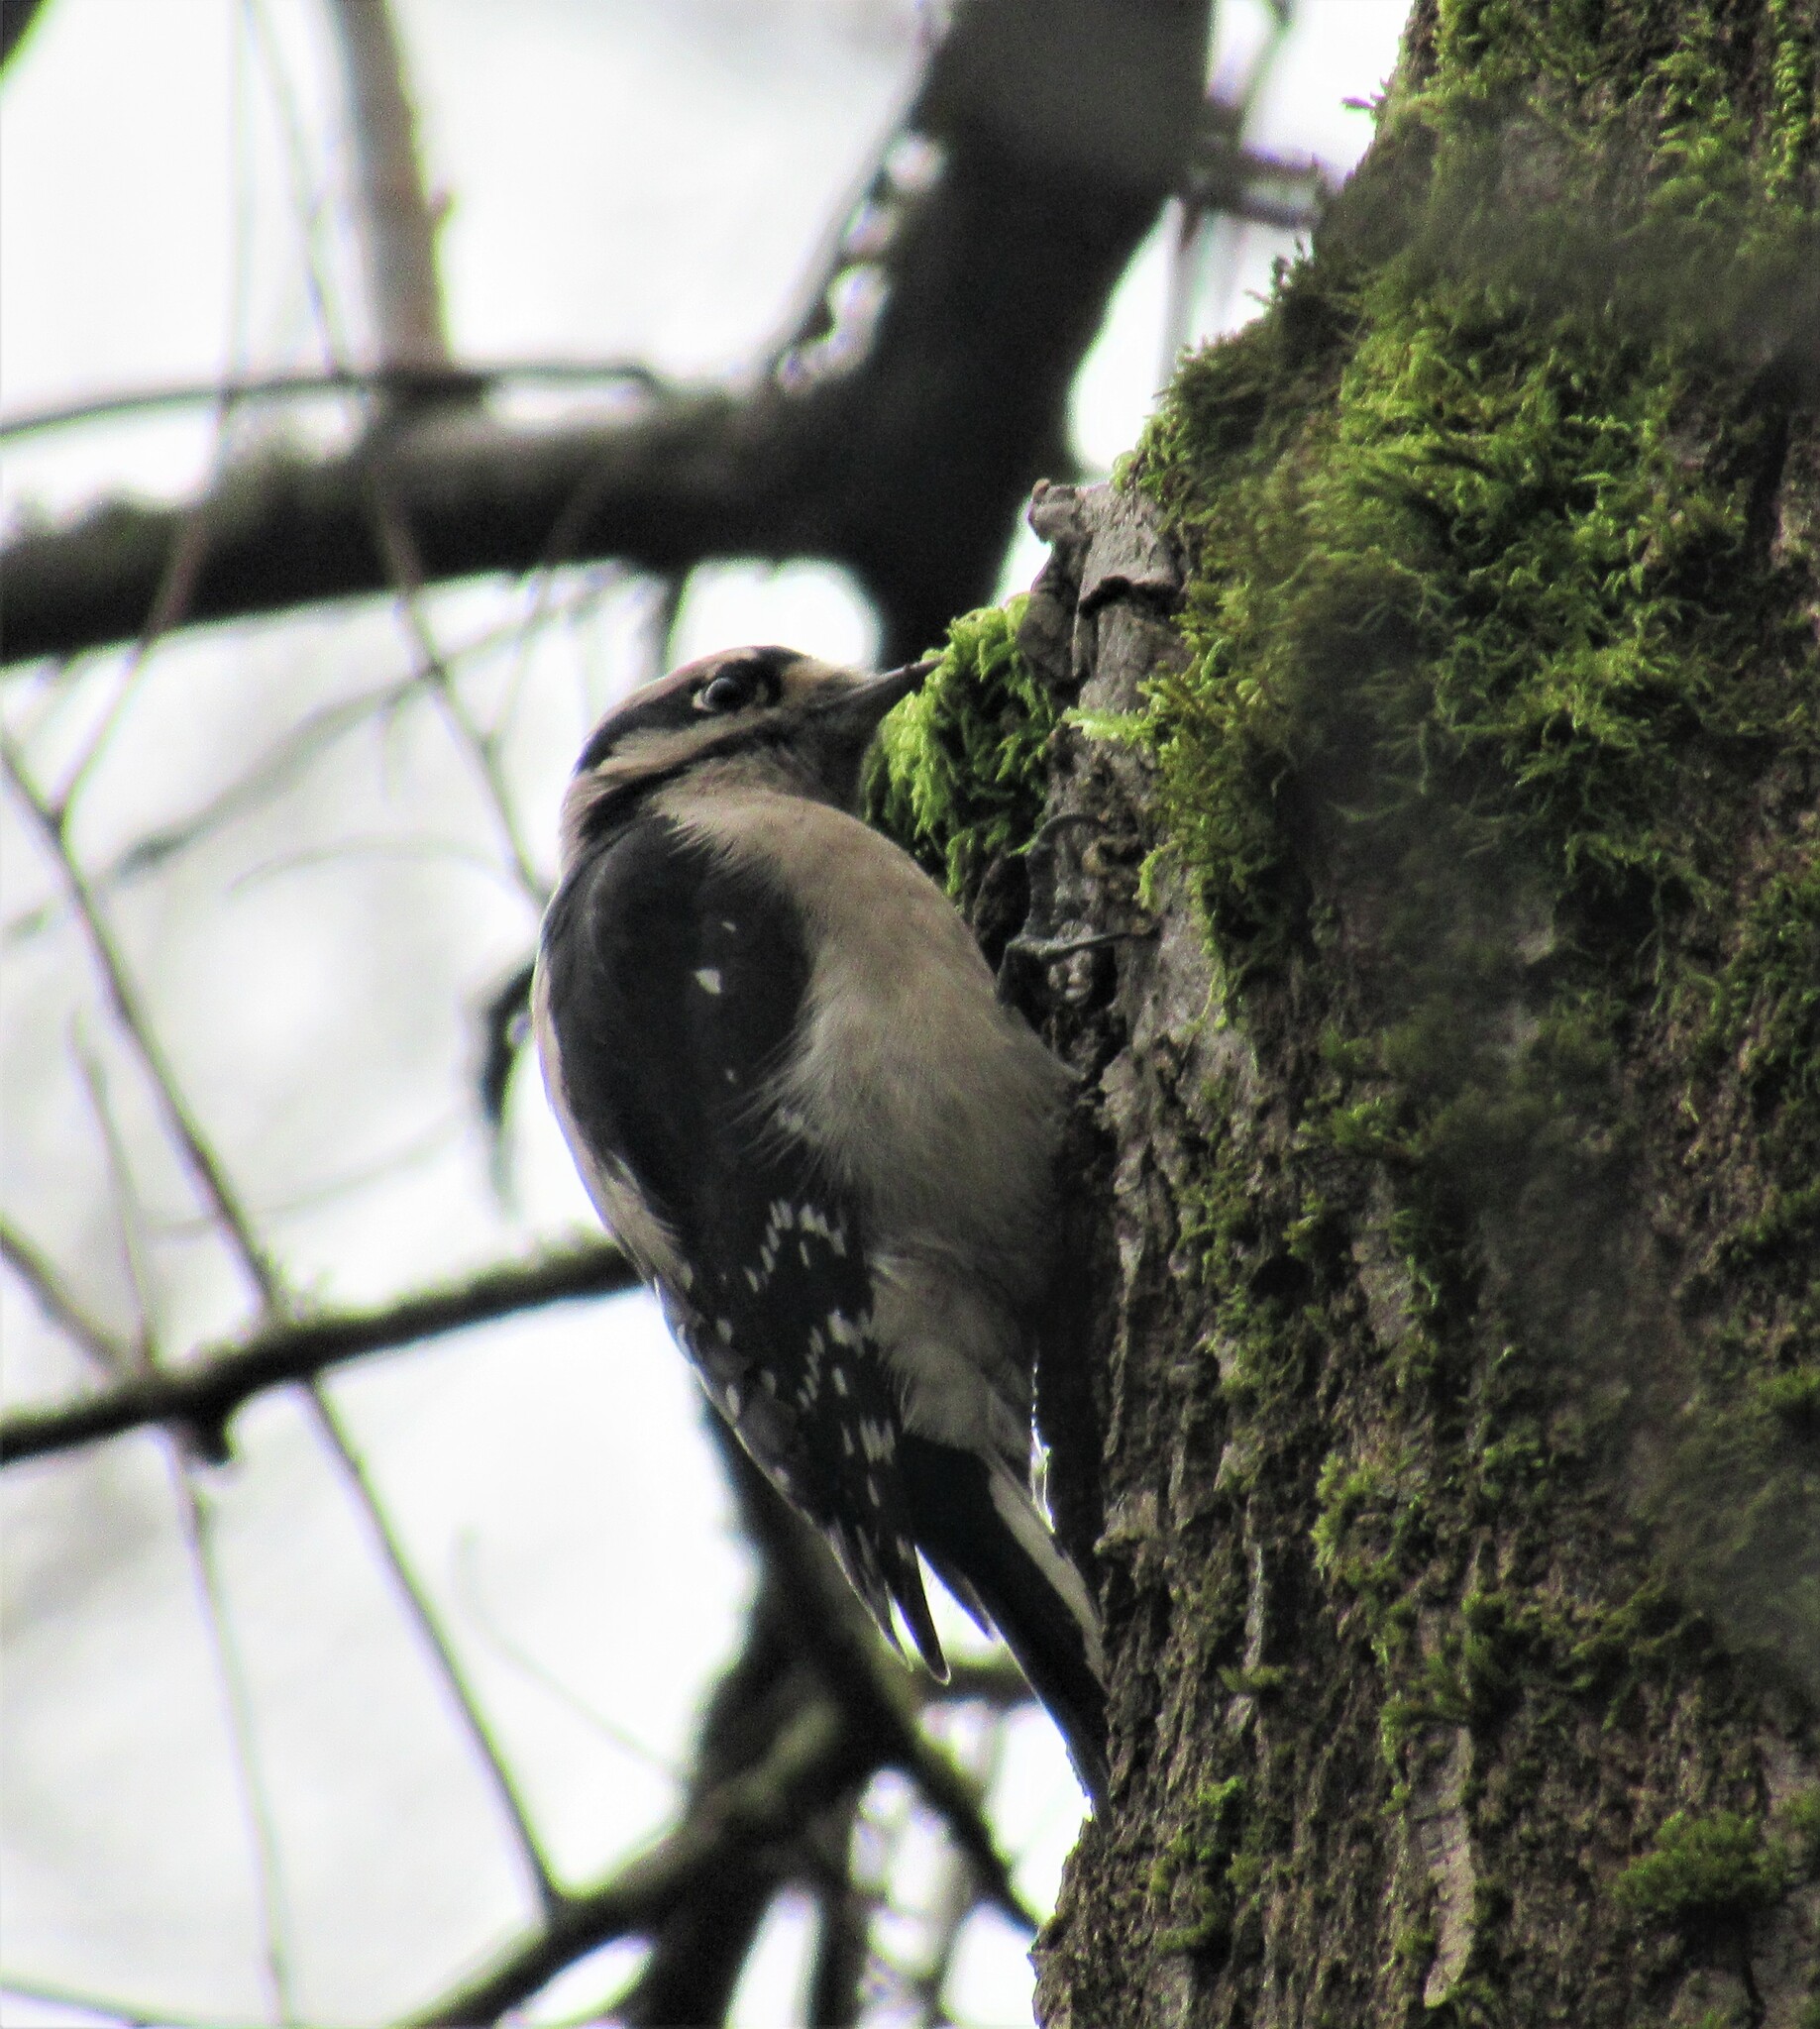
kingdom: Animalia
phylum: Chordata
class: Aves
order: Piciformes
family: Picidae
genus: Dryobates
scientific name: Dryobates pubescens
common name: Downy woodpecker
